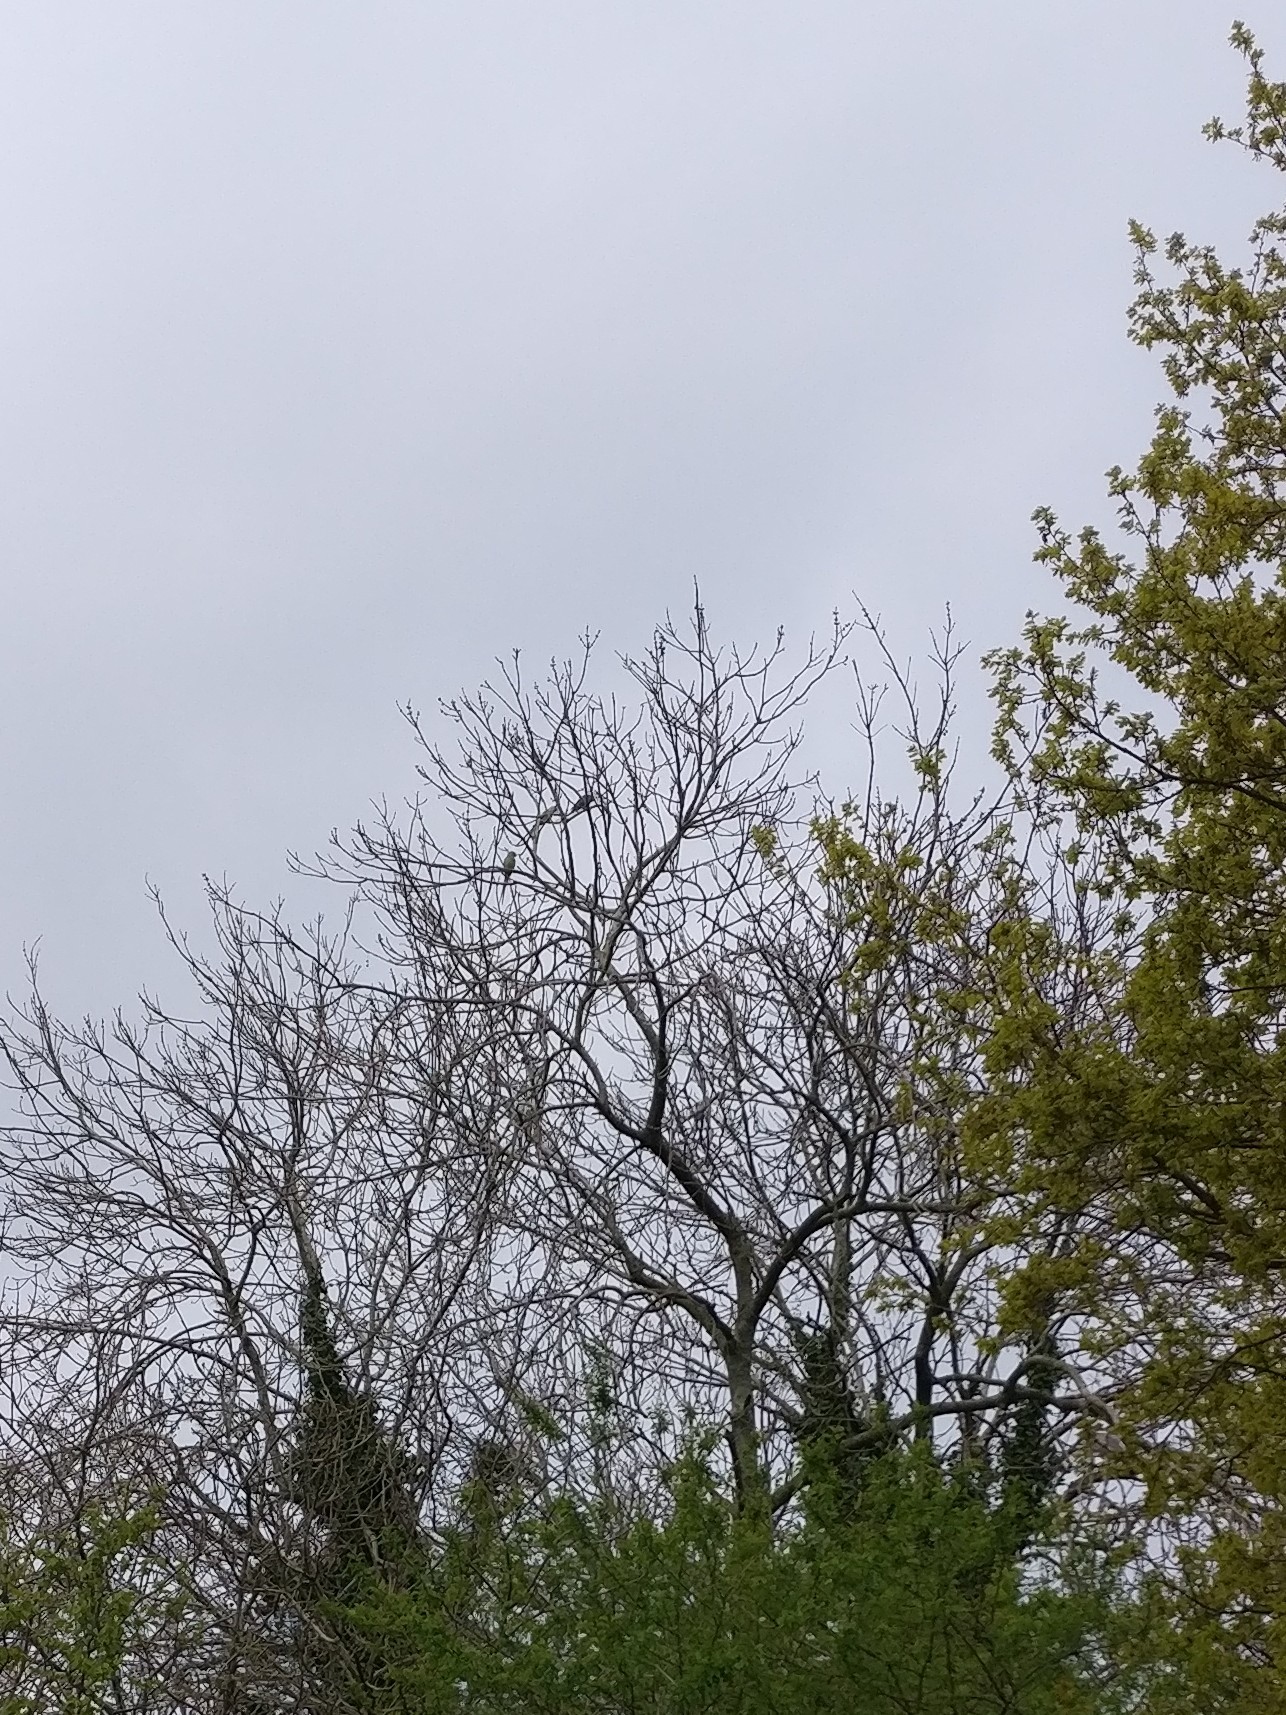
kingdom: Animalia
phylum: Chordata
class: Aves
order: Psittaciformes
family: Psittacidae
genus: Psittacula
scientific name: Psittacula krameri
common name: Rose-ringed parakeet
